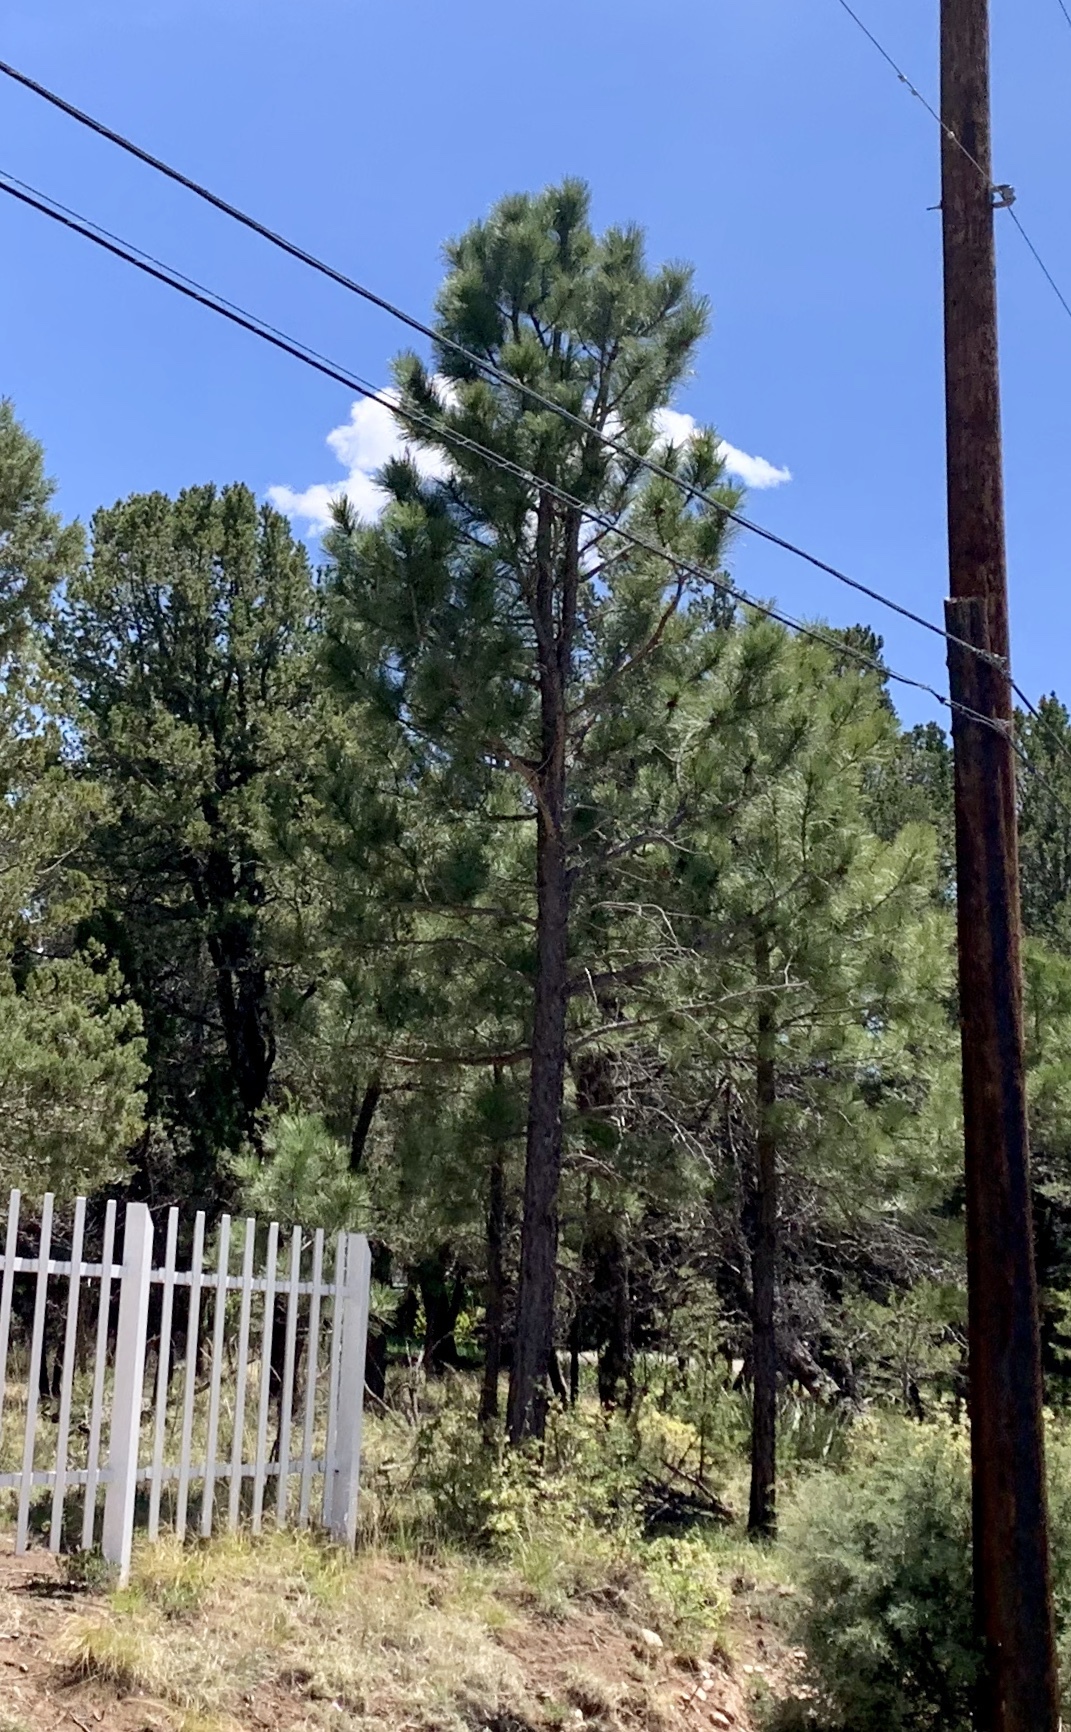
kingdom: Plantae
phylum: Tracheophyta
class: Pinopsida
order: Pinales
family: Pinaceae
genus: Pinus
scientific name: Pinus ponderosa
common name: Western yellow-pine
